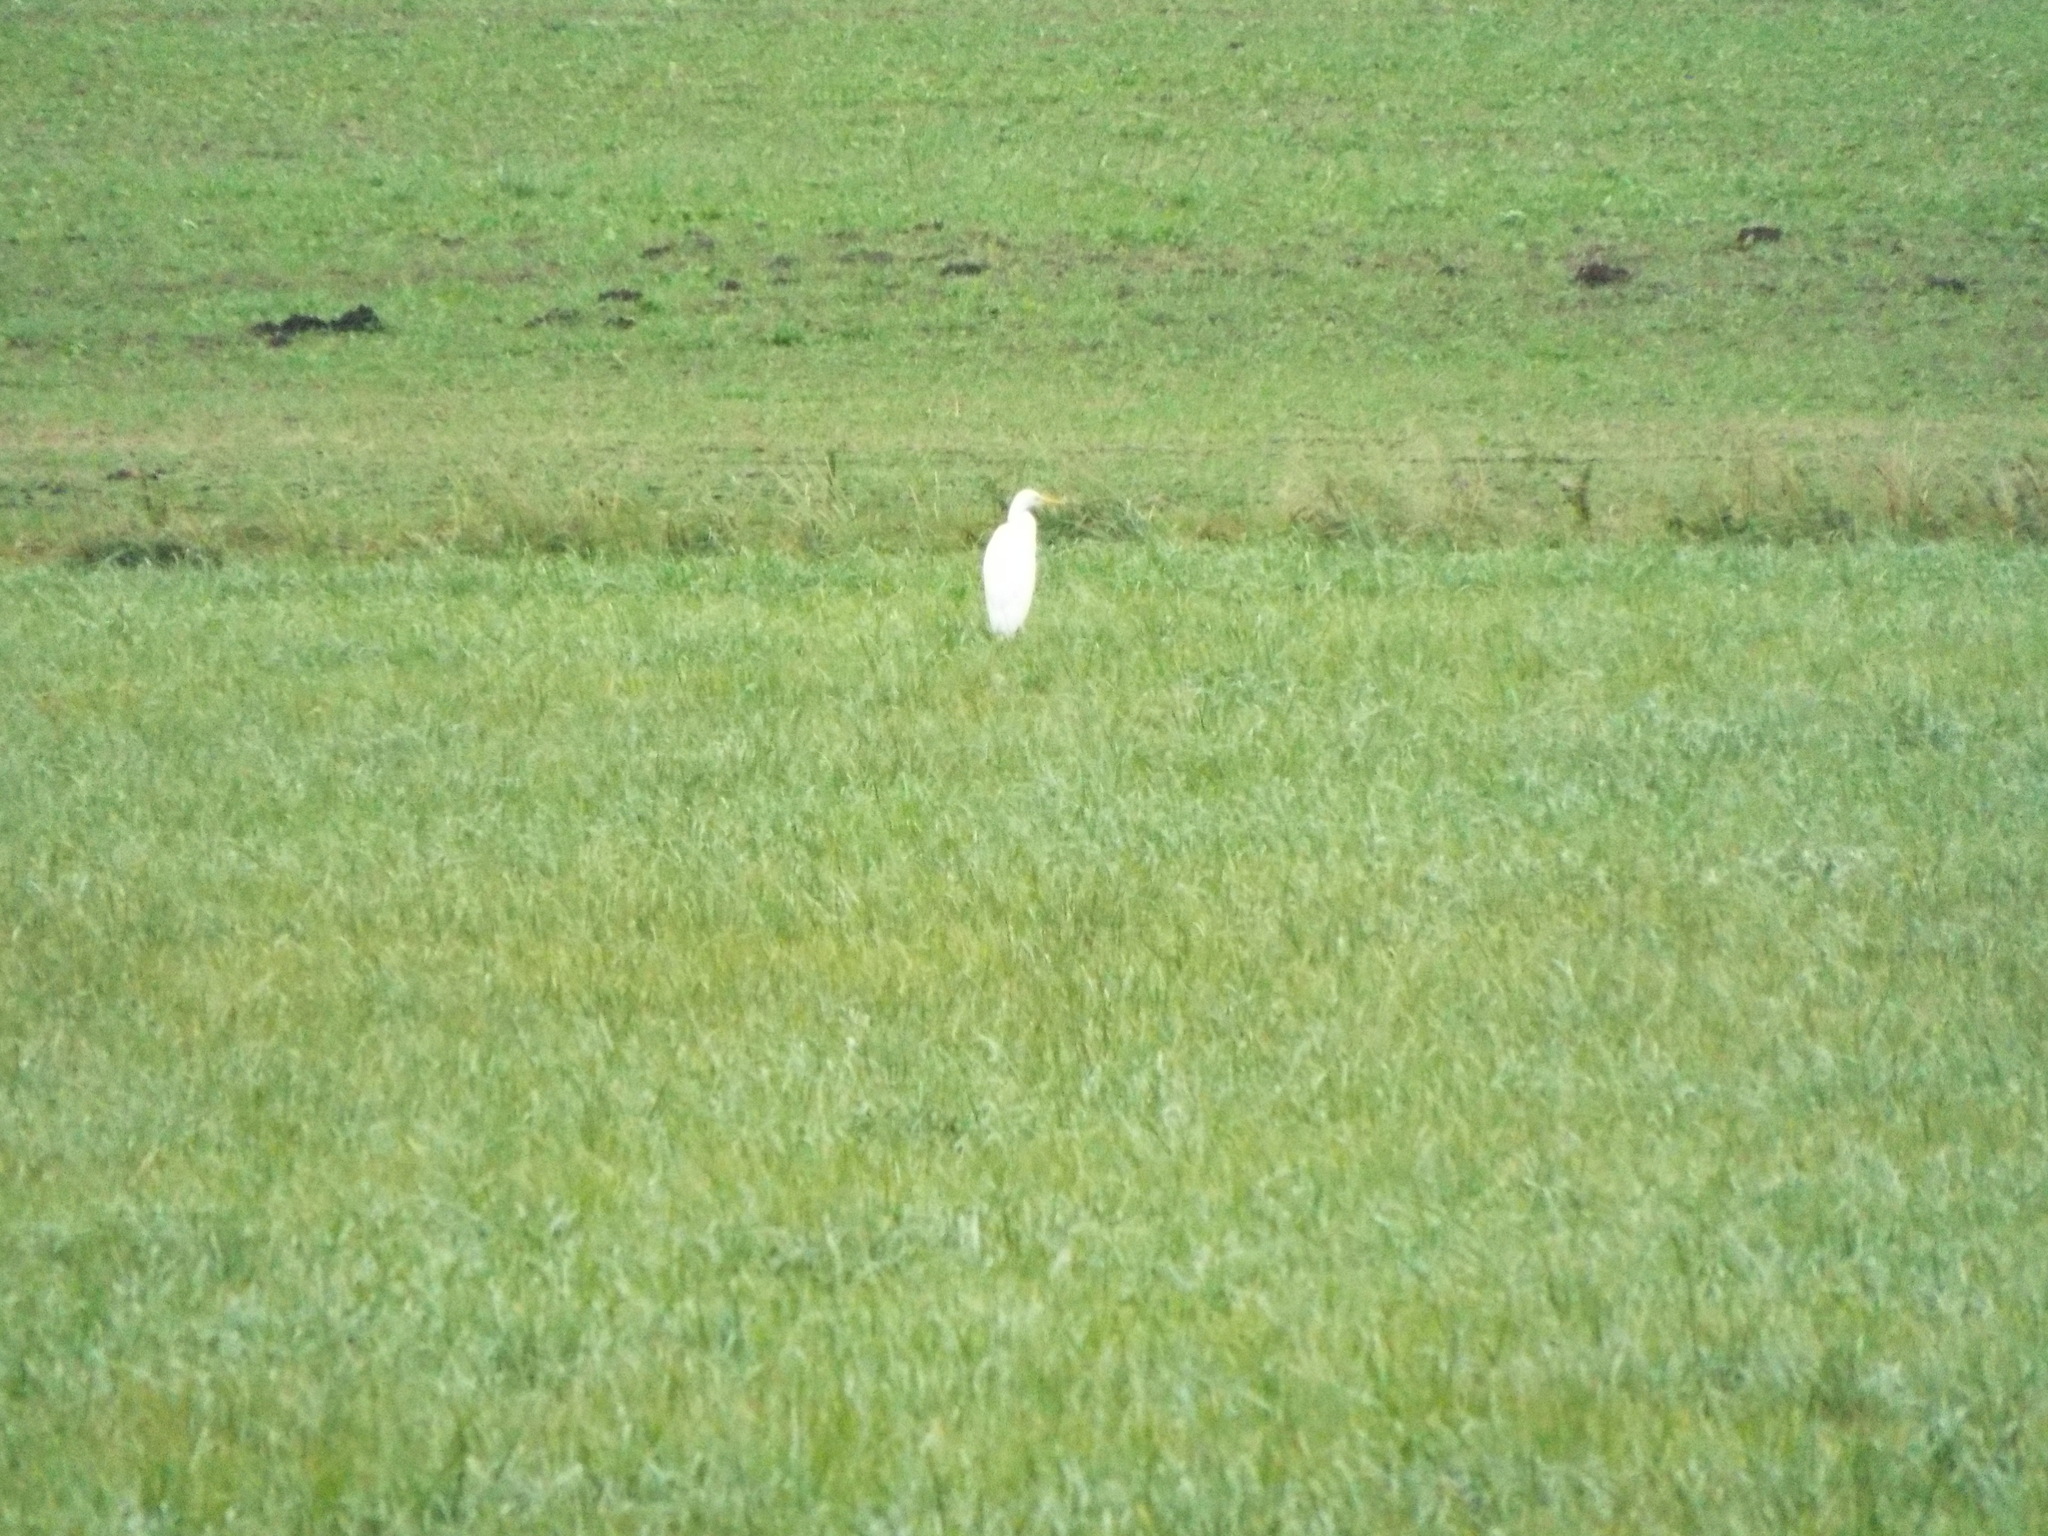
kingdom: Animalia
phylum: Chordata
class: Aves
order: Pelecaniformes
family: Ardeidae
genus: Ardea
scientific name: Ardea alba
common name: Great egret
